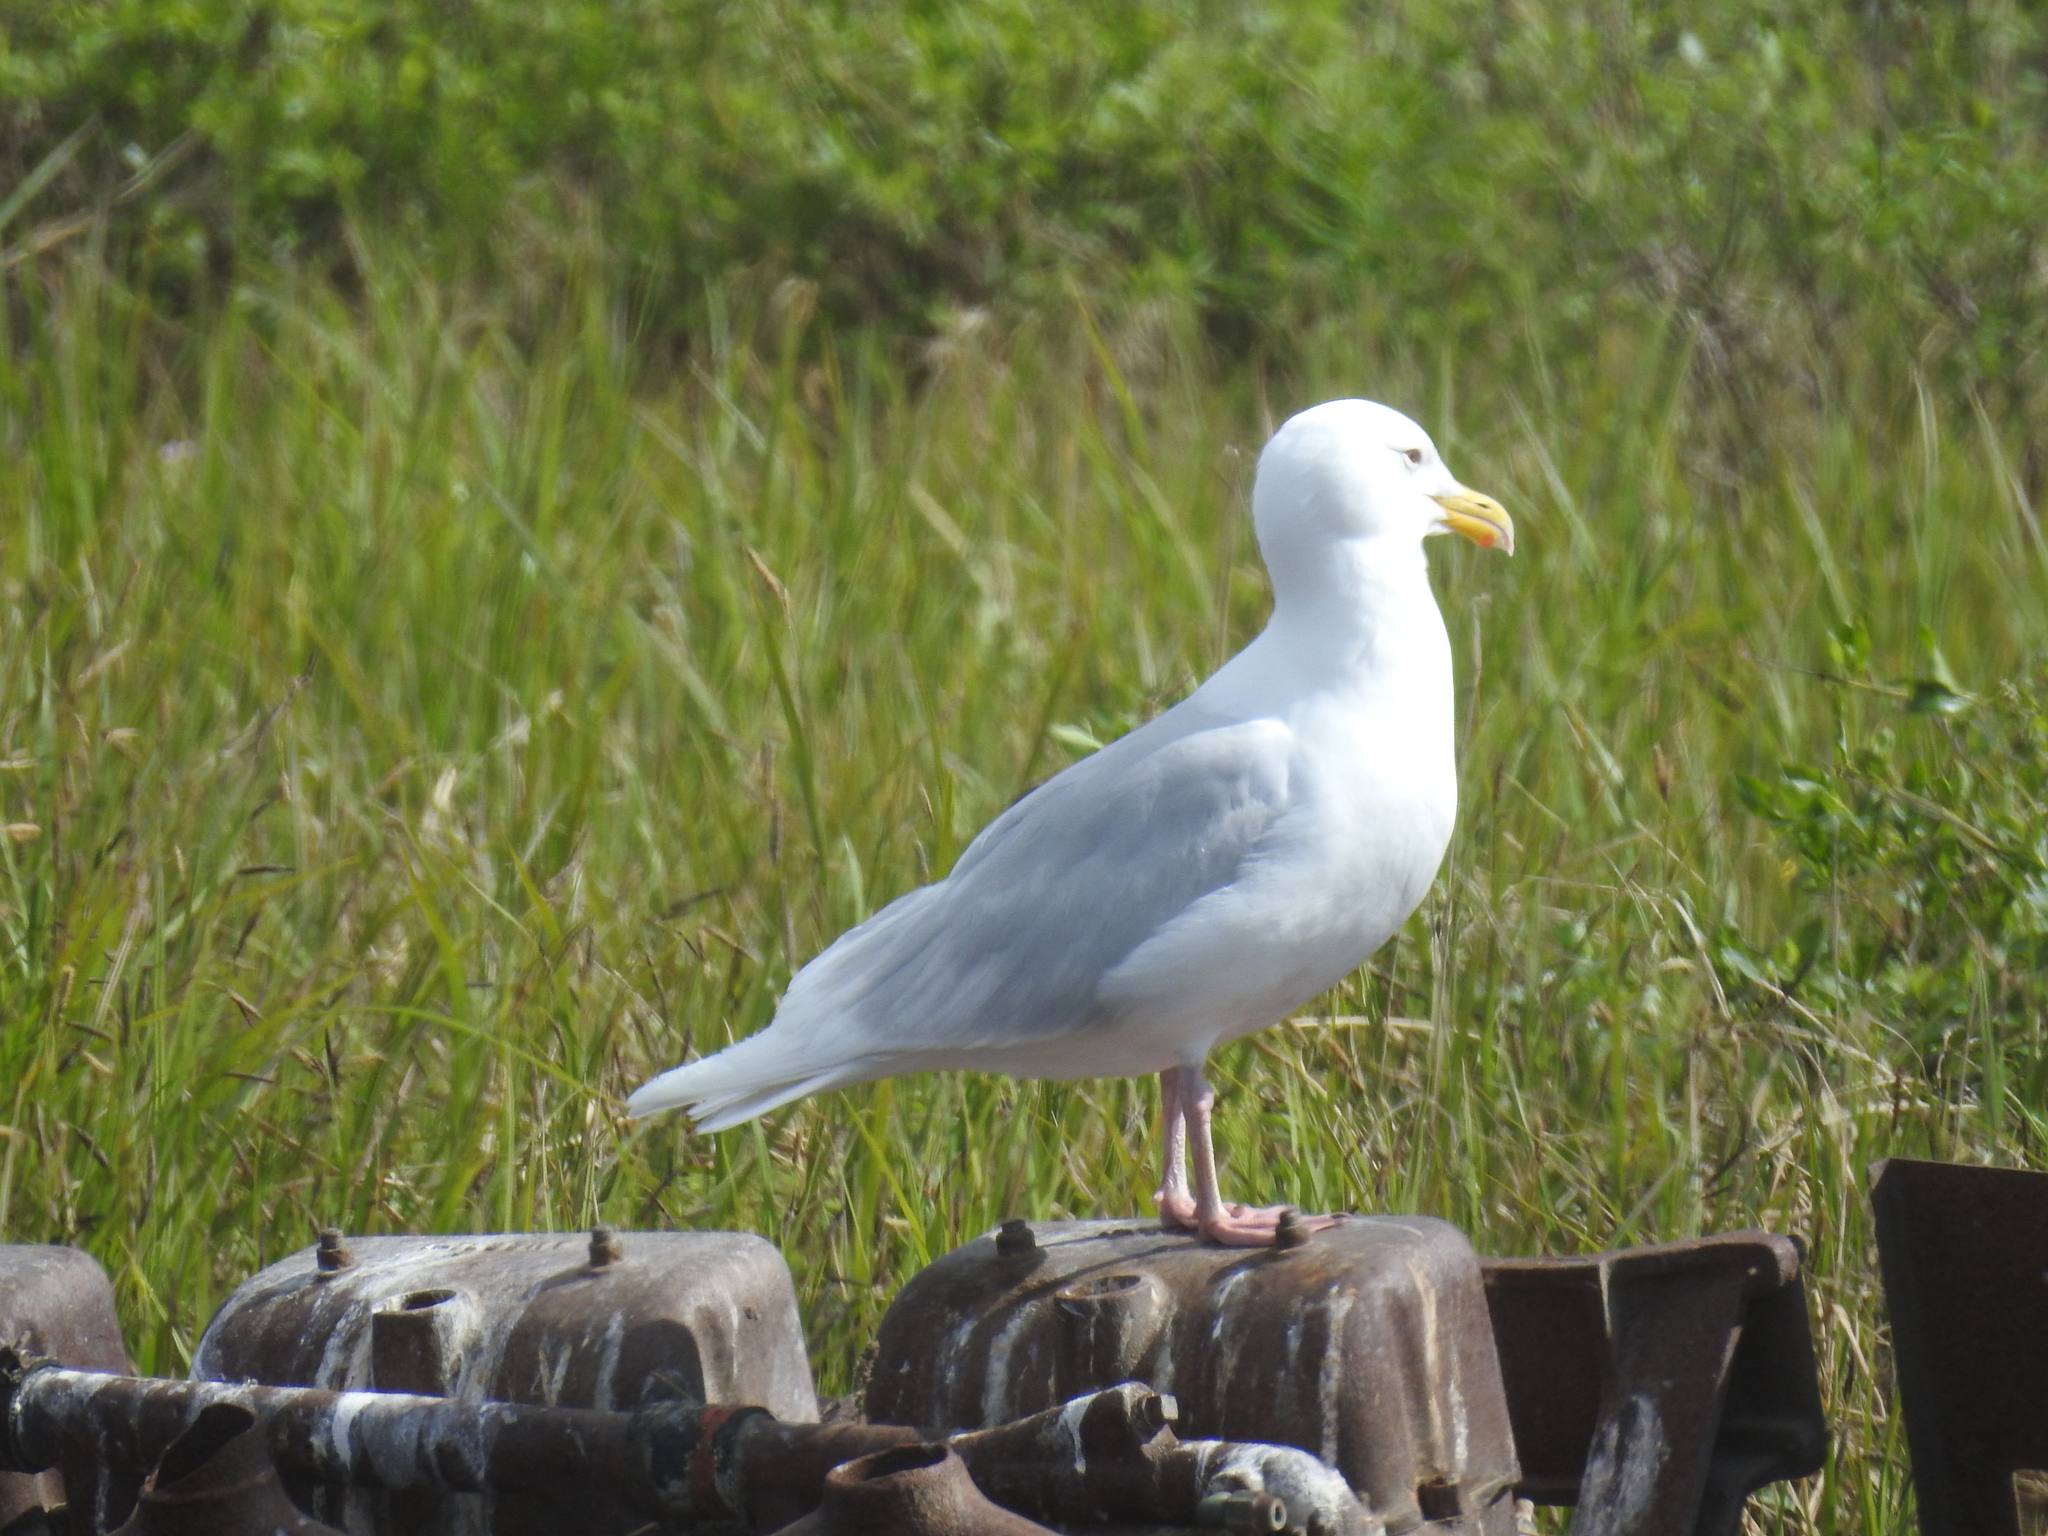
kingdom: Animalia
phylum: Chordata
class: Aves
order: Charadriiformes
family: Laridae
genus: Larus
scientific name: Larus hyperboreus
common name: Glaucous gull
